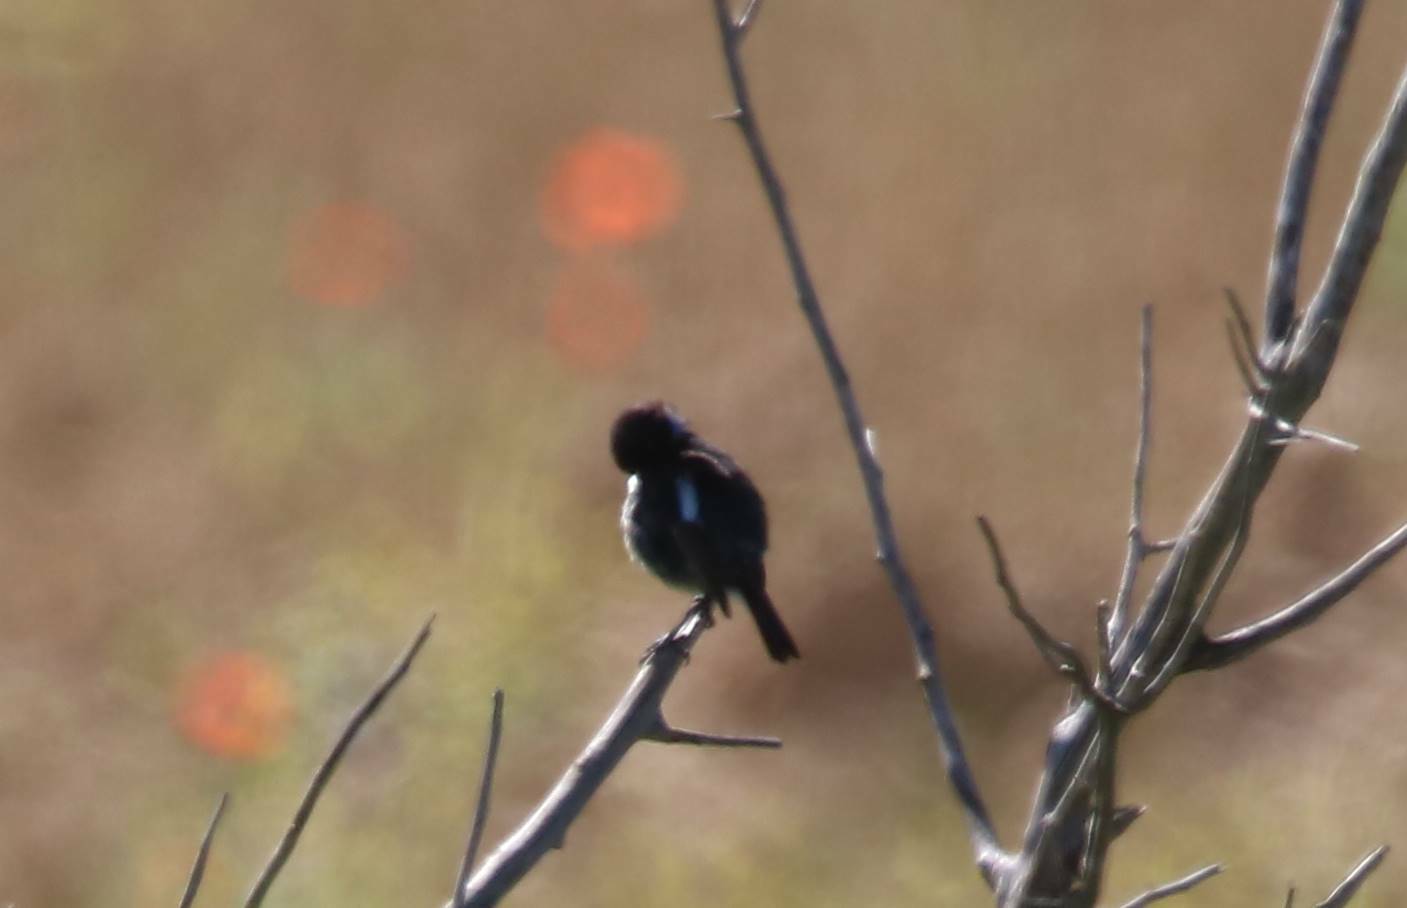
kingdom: Animalia
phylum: Chordata
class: Aves
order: Passeriformes
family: Muscicapidae
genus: Saxicola
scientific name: Saxicola rubicola
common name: European stonechat
